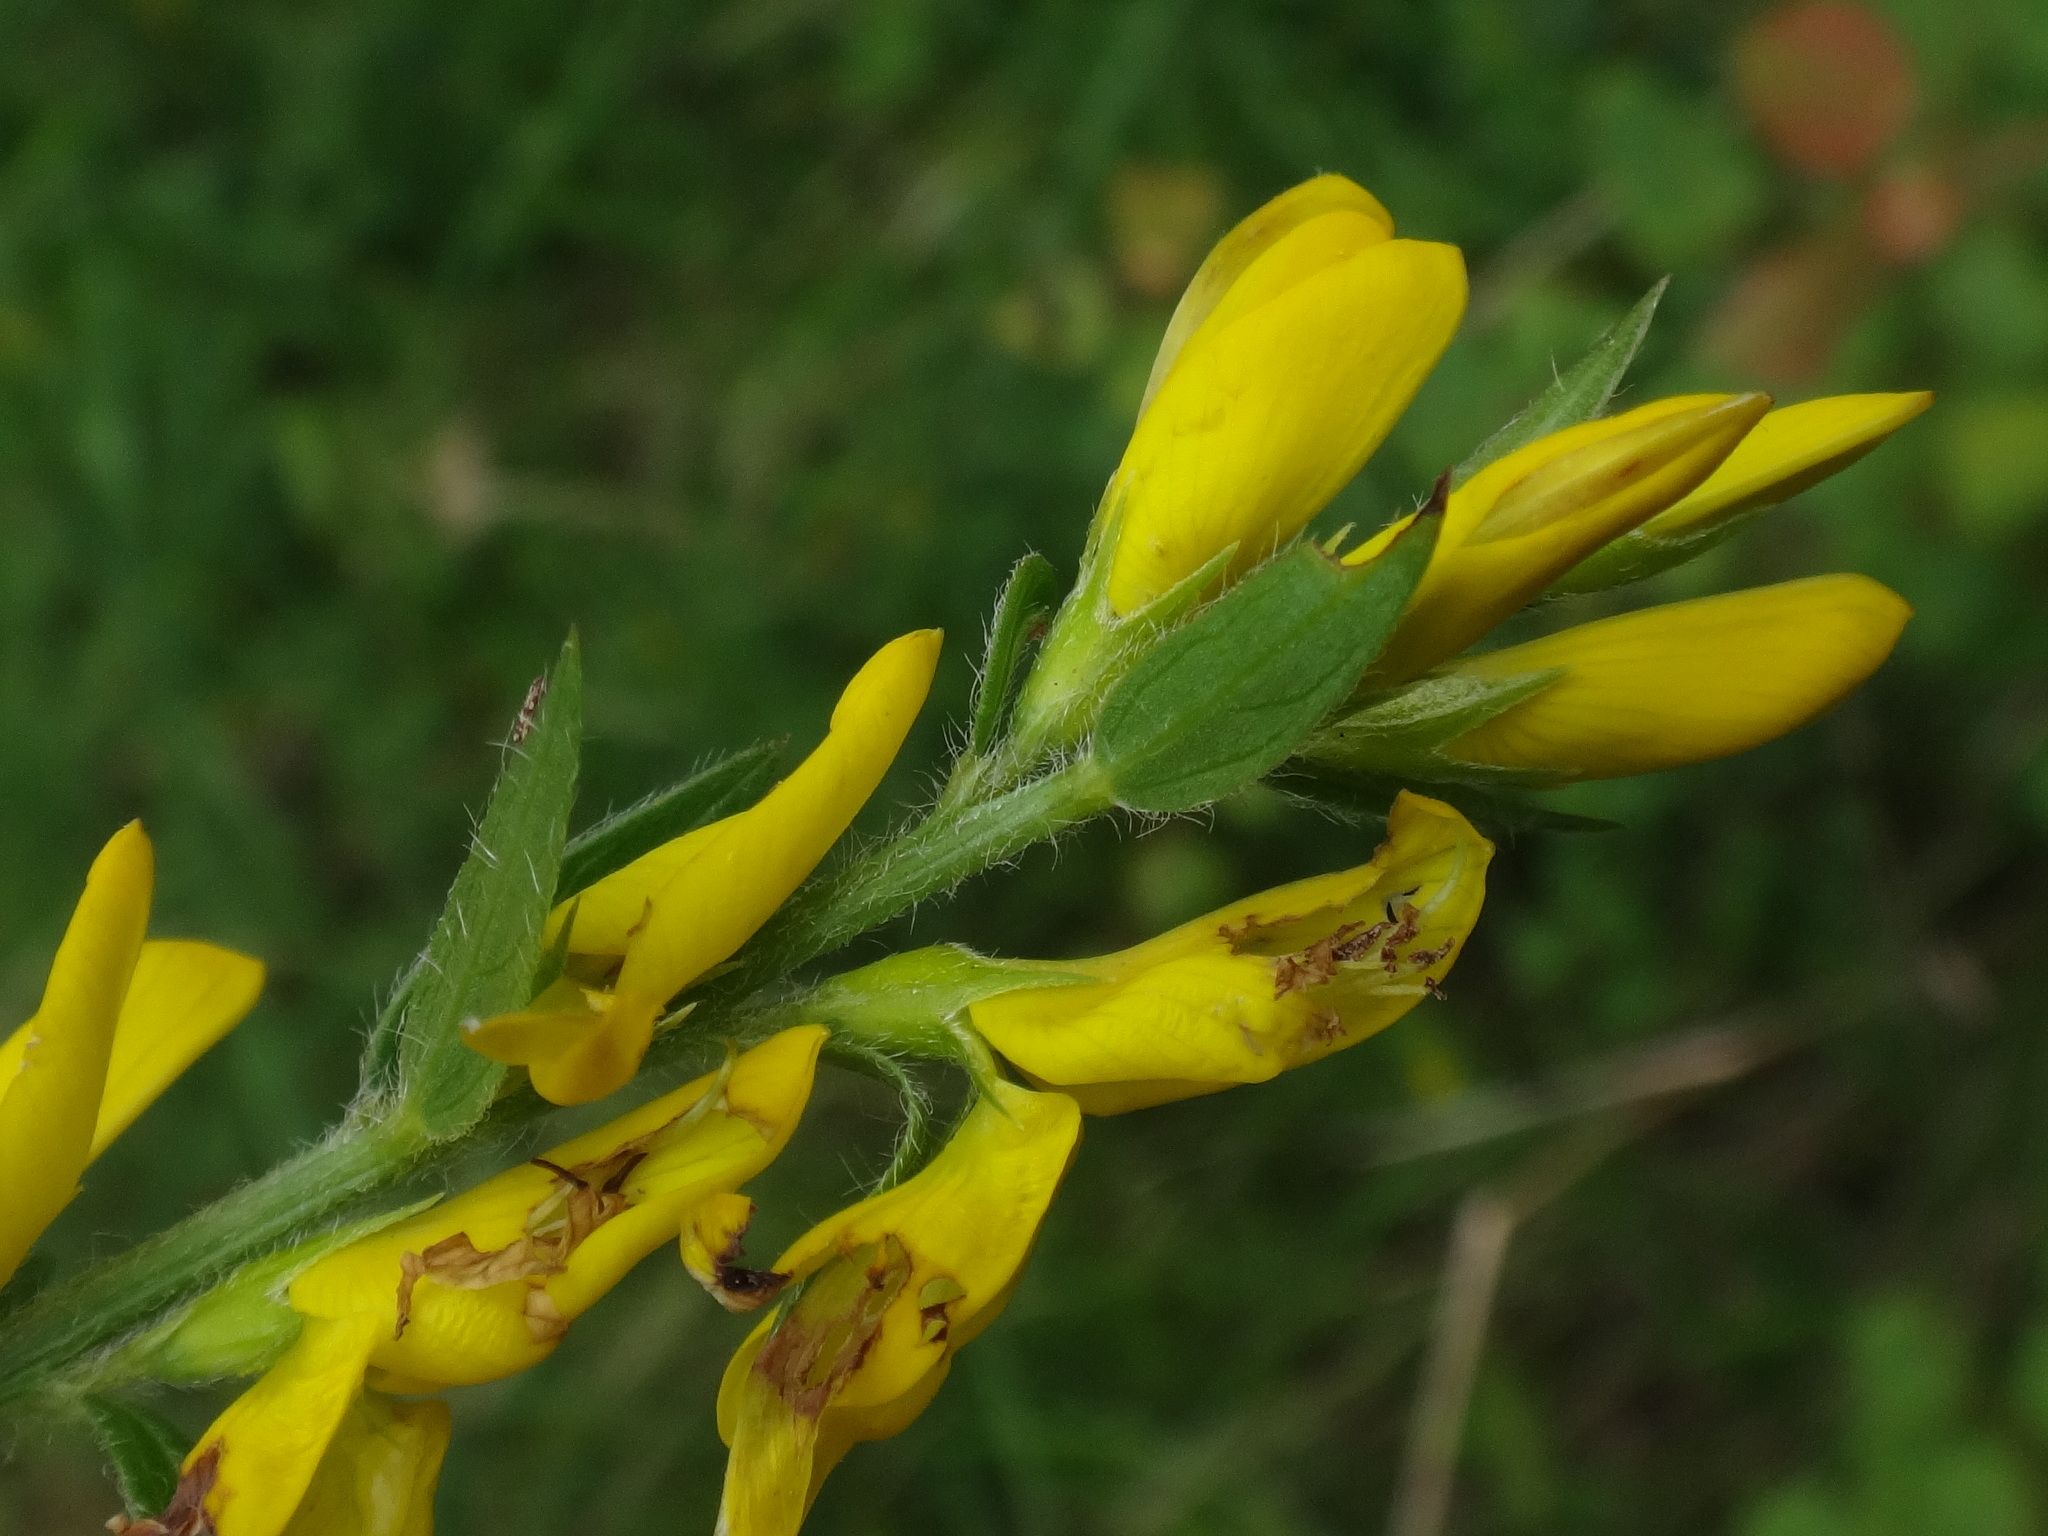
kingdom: Plantae
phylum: Tracheophyta
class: Magnoliopsida
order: Fabales
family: Fabaceae
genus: Genista
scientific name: Genista tinctoria
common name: Dyer's greenweed
